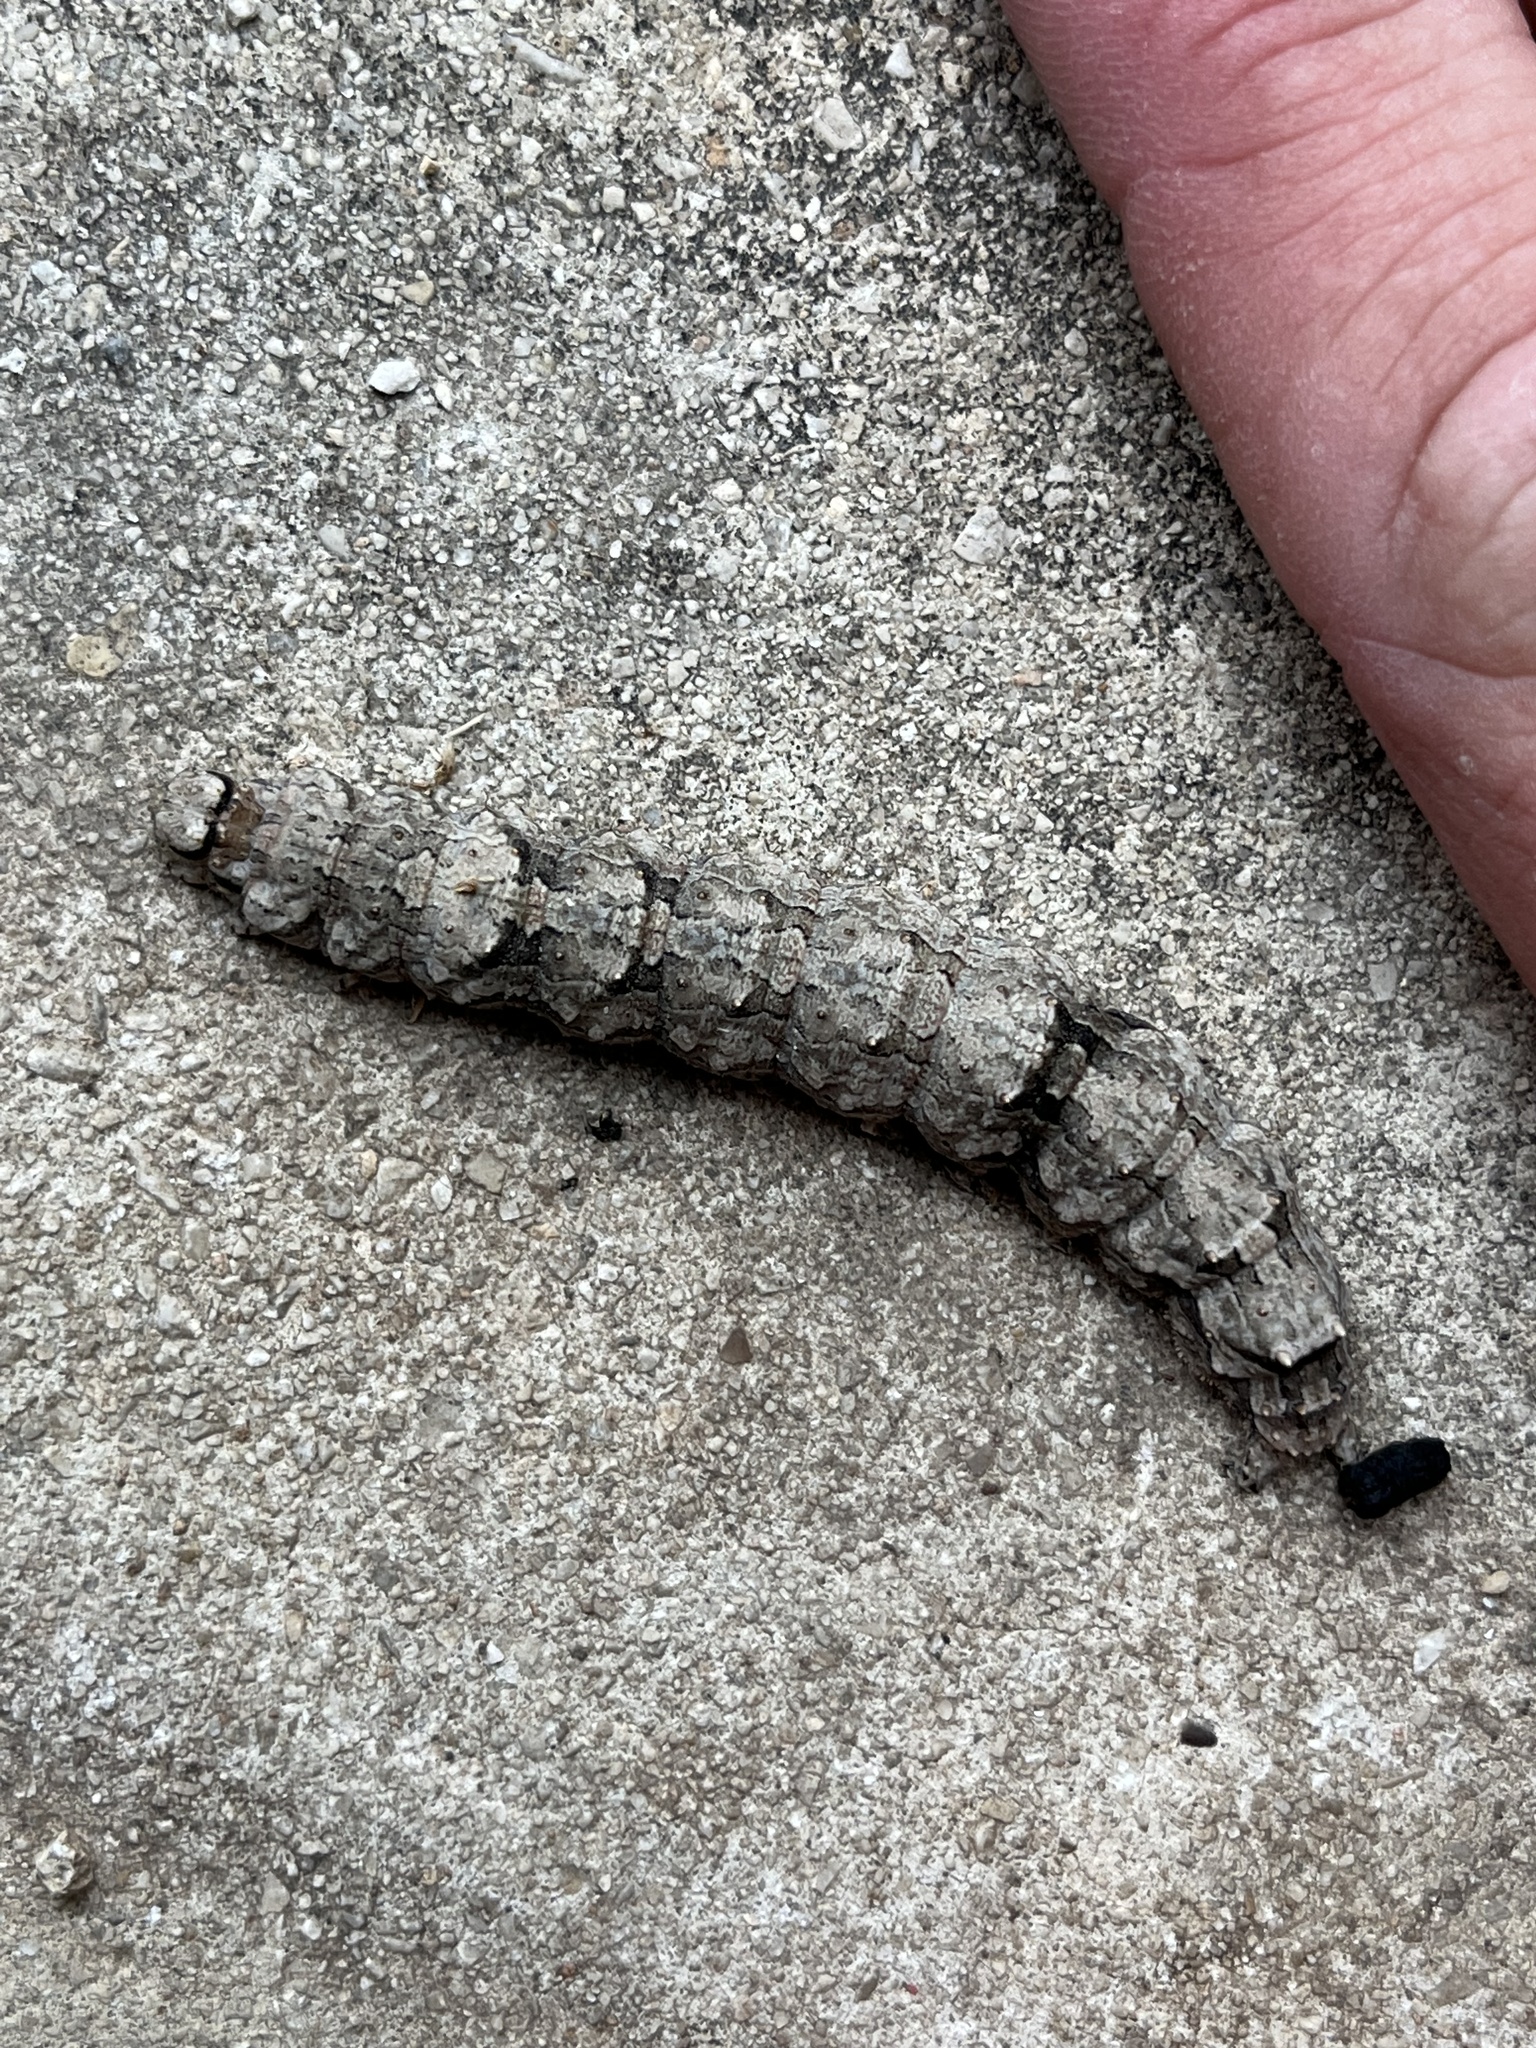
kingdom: Animalia
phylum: Arthropoda
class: Insecta
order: Lepidoptera
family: Erebidae
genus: Catocala
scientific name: Catocala ilia
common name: Ilia underwing
